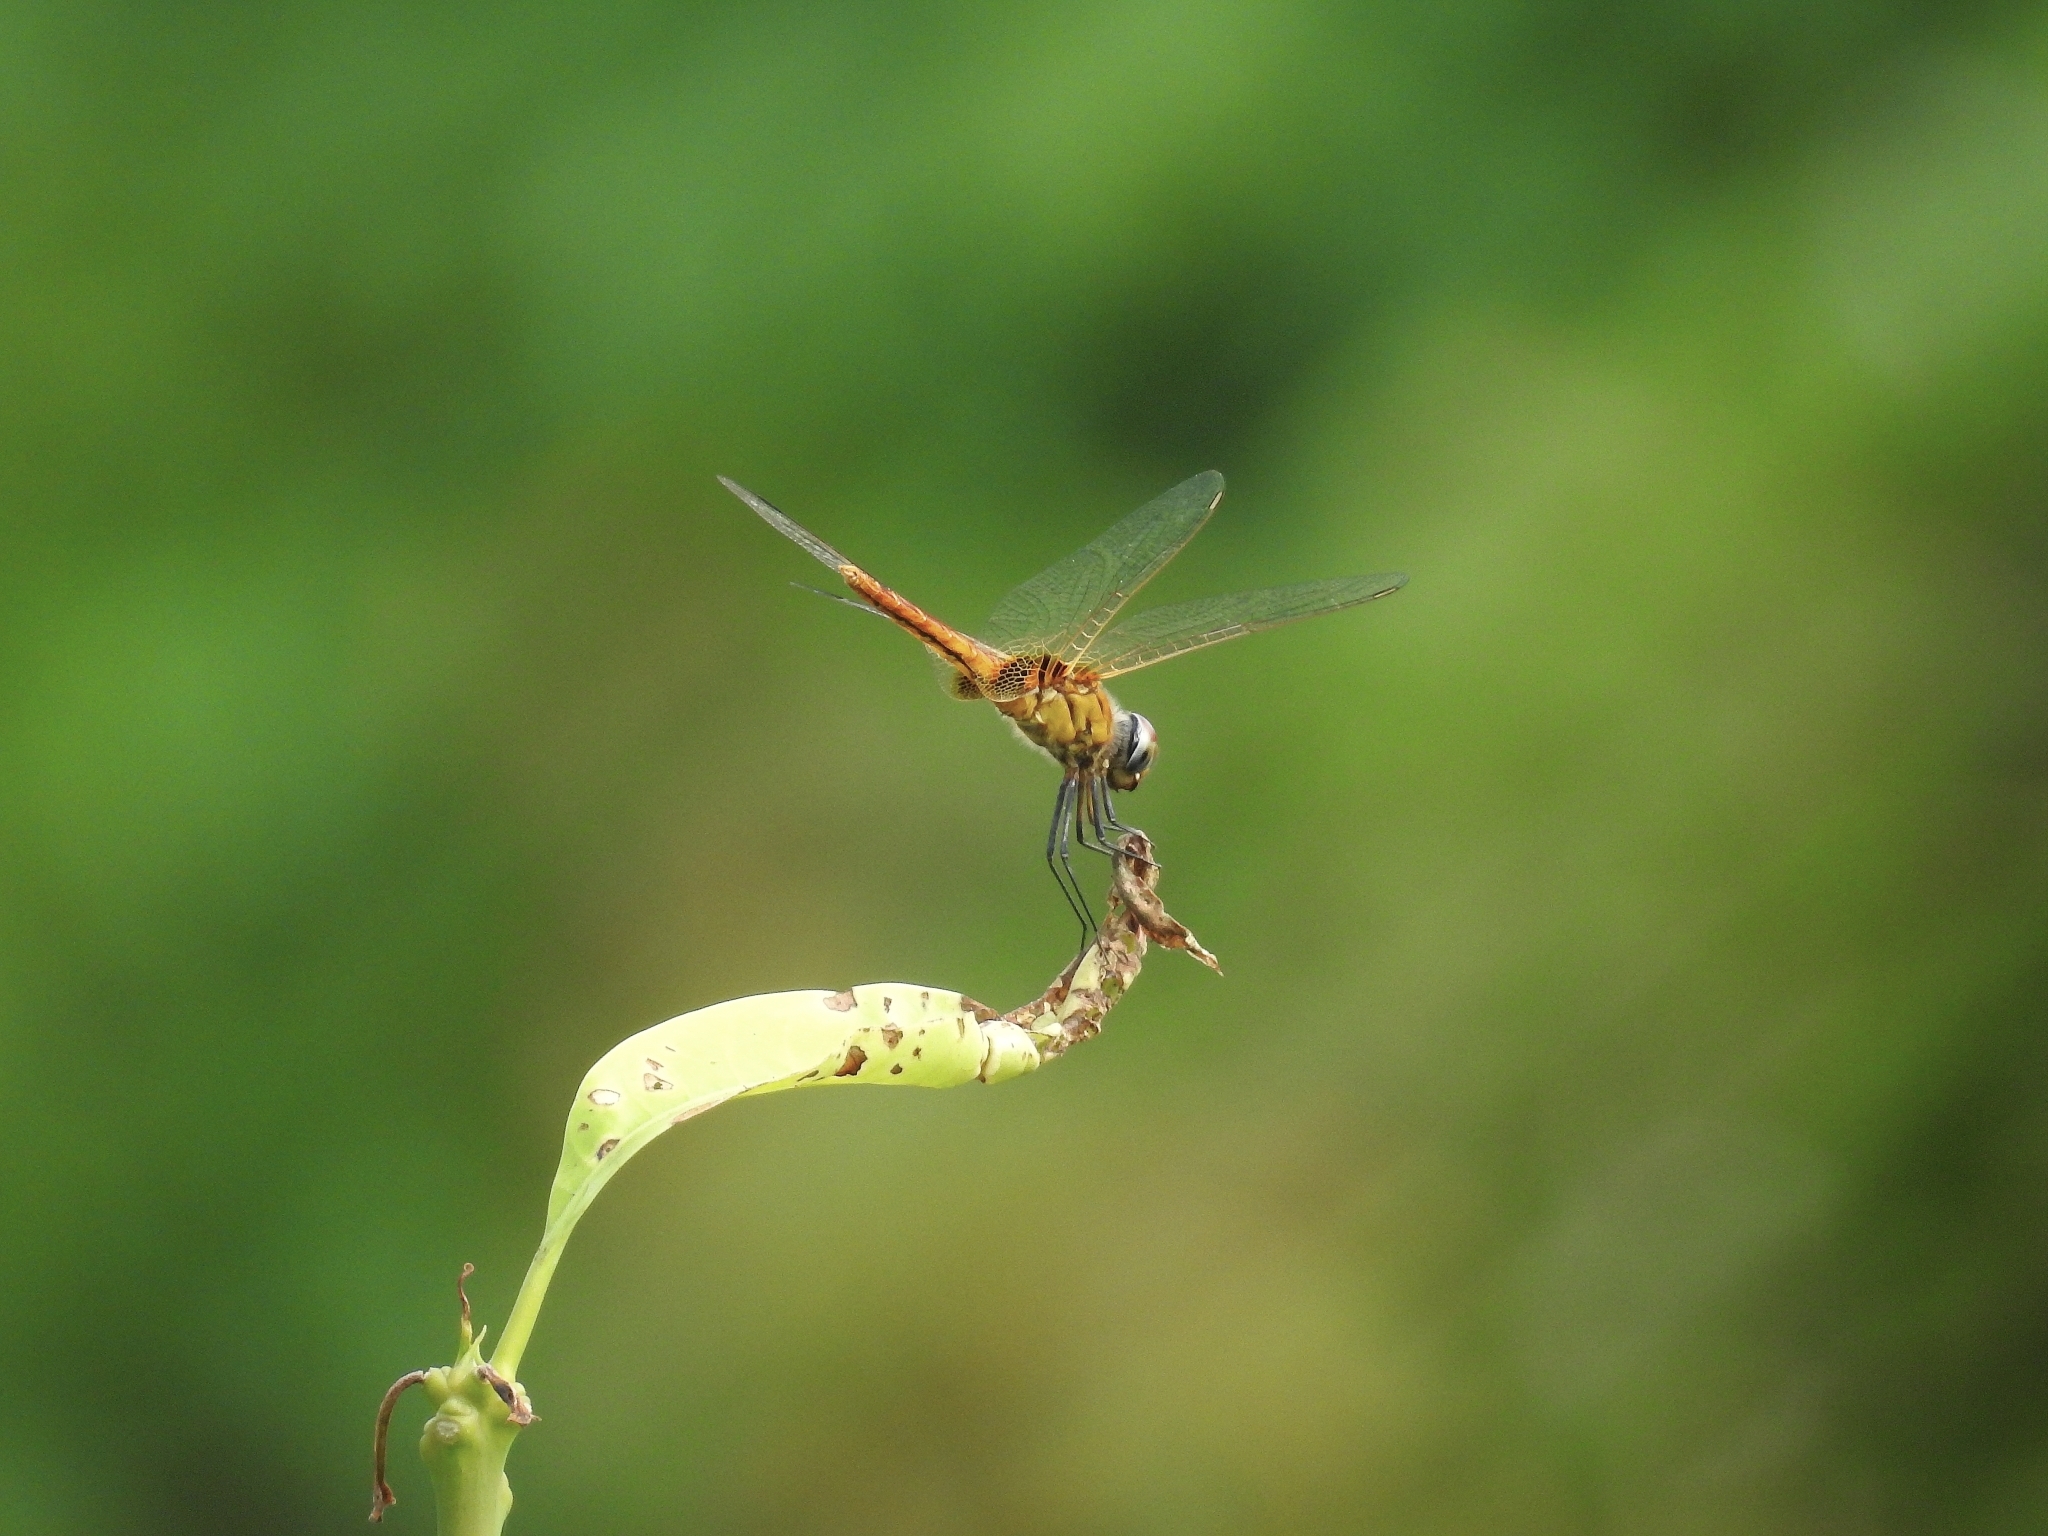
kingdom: Animalia
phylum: Arthropoda
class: Insecta
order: Odonata
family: Libellulidae
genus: Urothemis
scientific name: Urothemis signata
